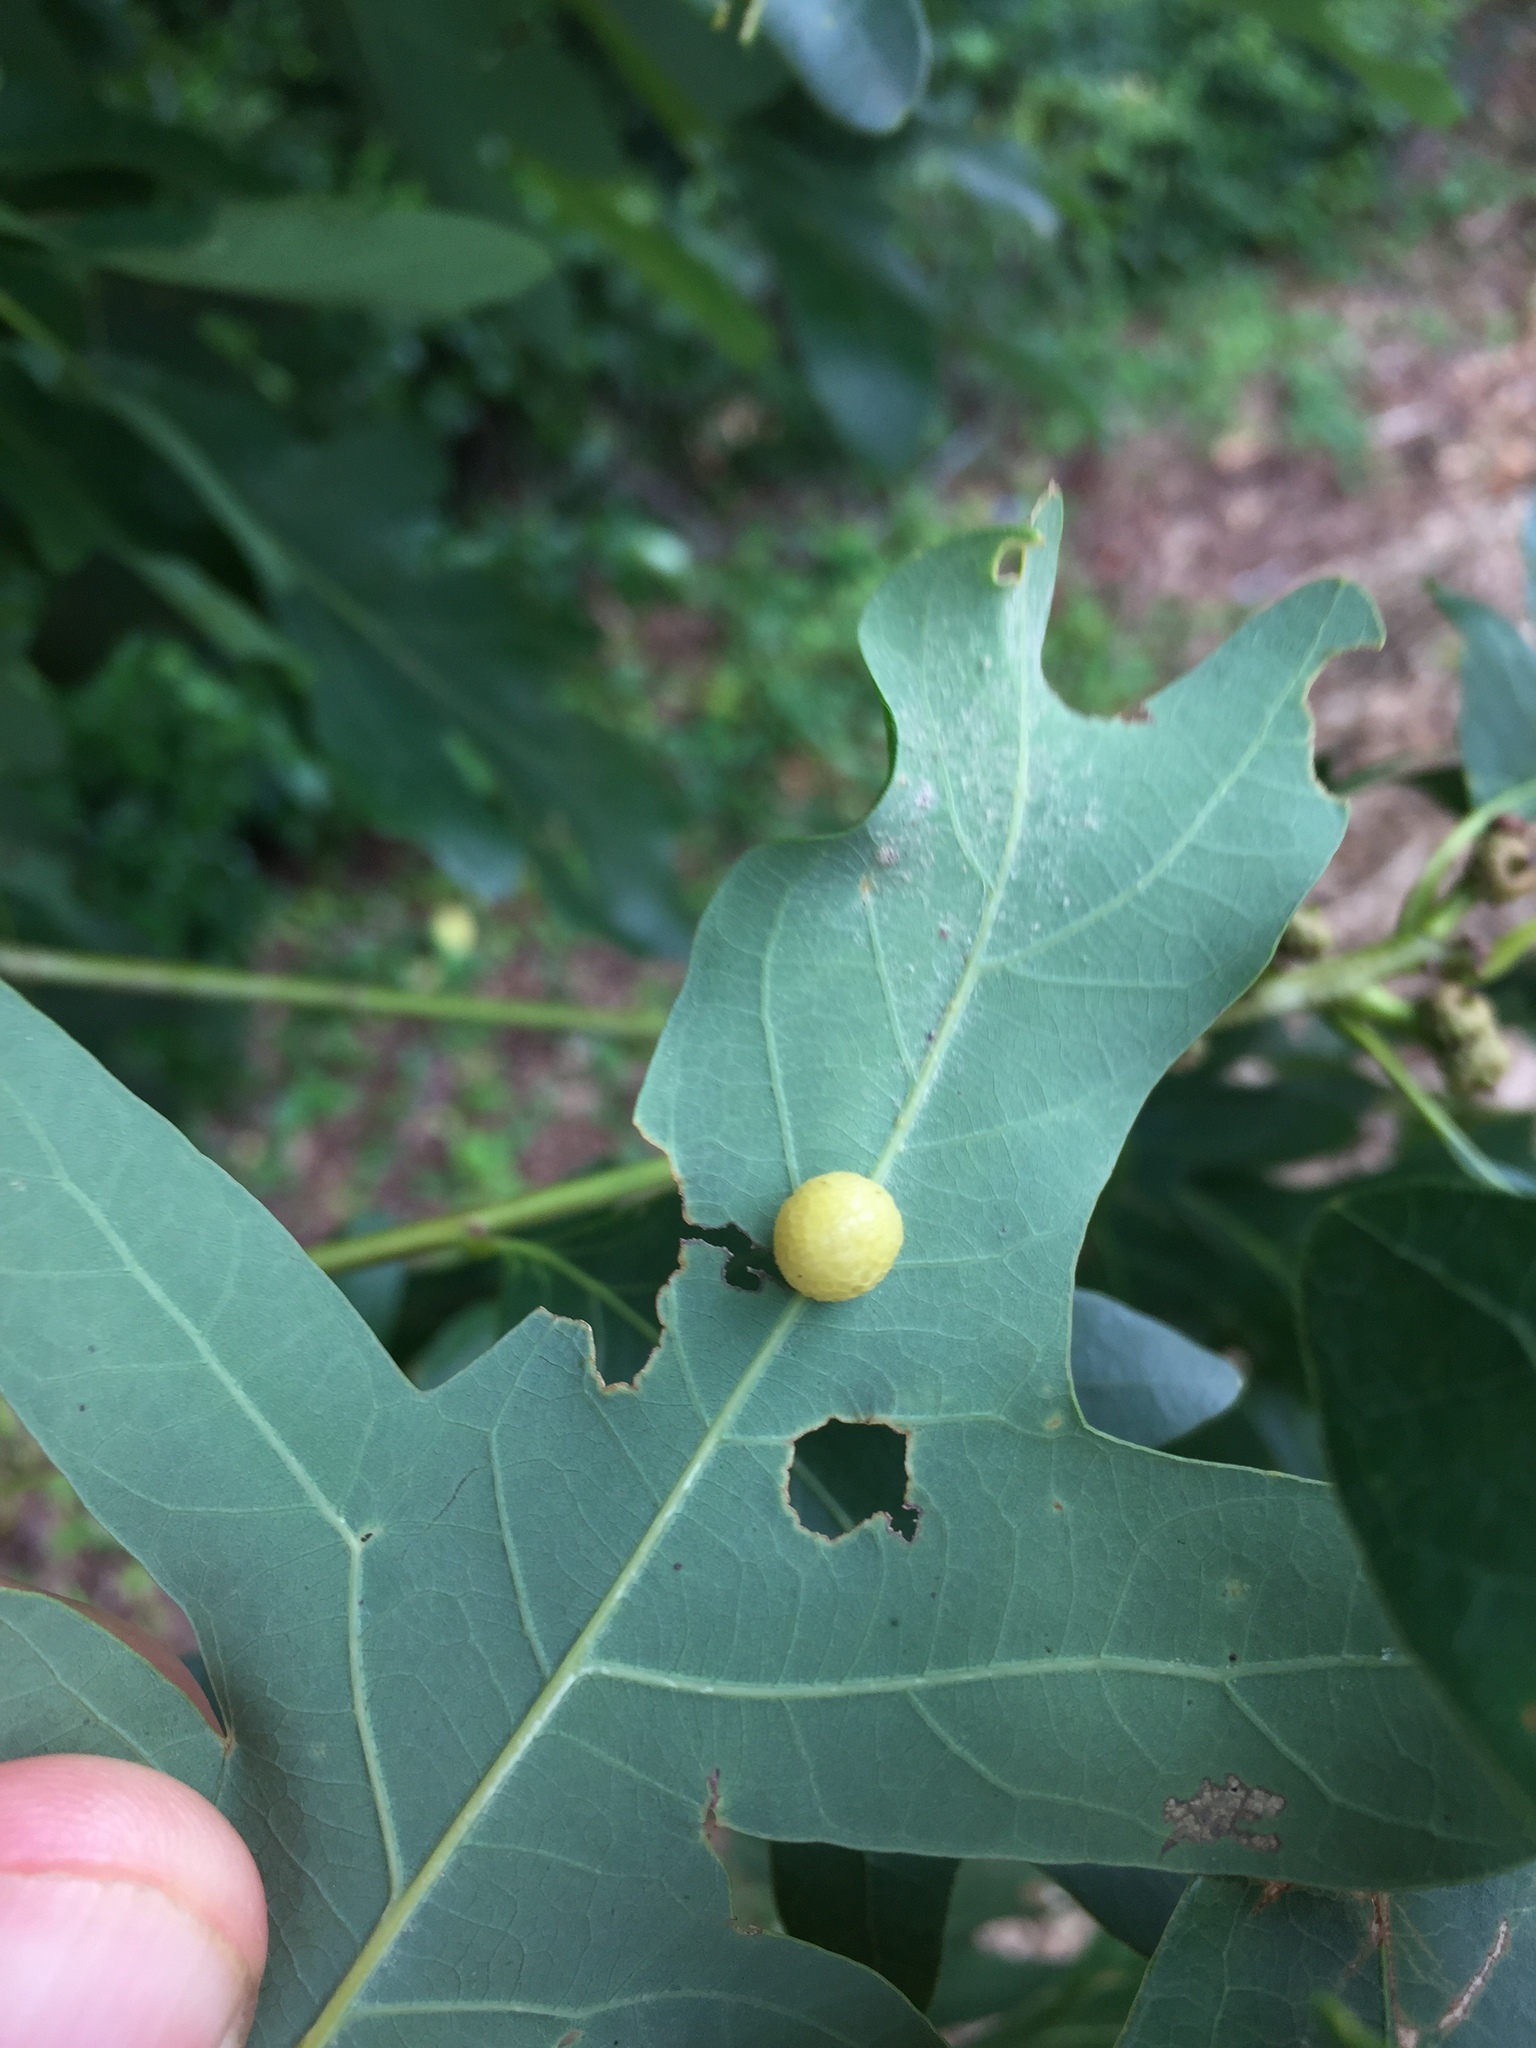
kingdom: Animalia
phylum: Arthropoda
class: Insecta
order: Hymenoptera
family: Cynipidae
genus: Acraspis
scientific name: Acraspis
